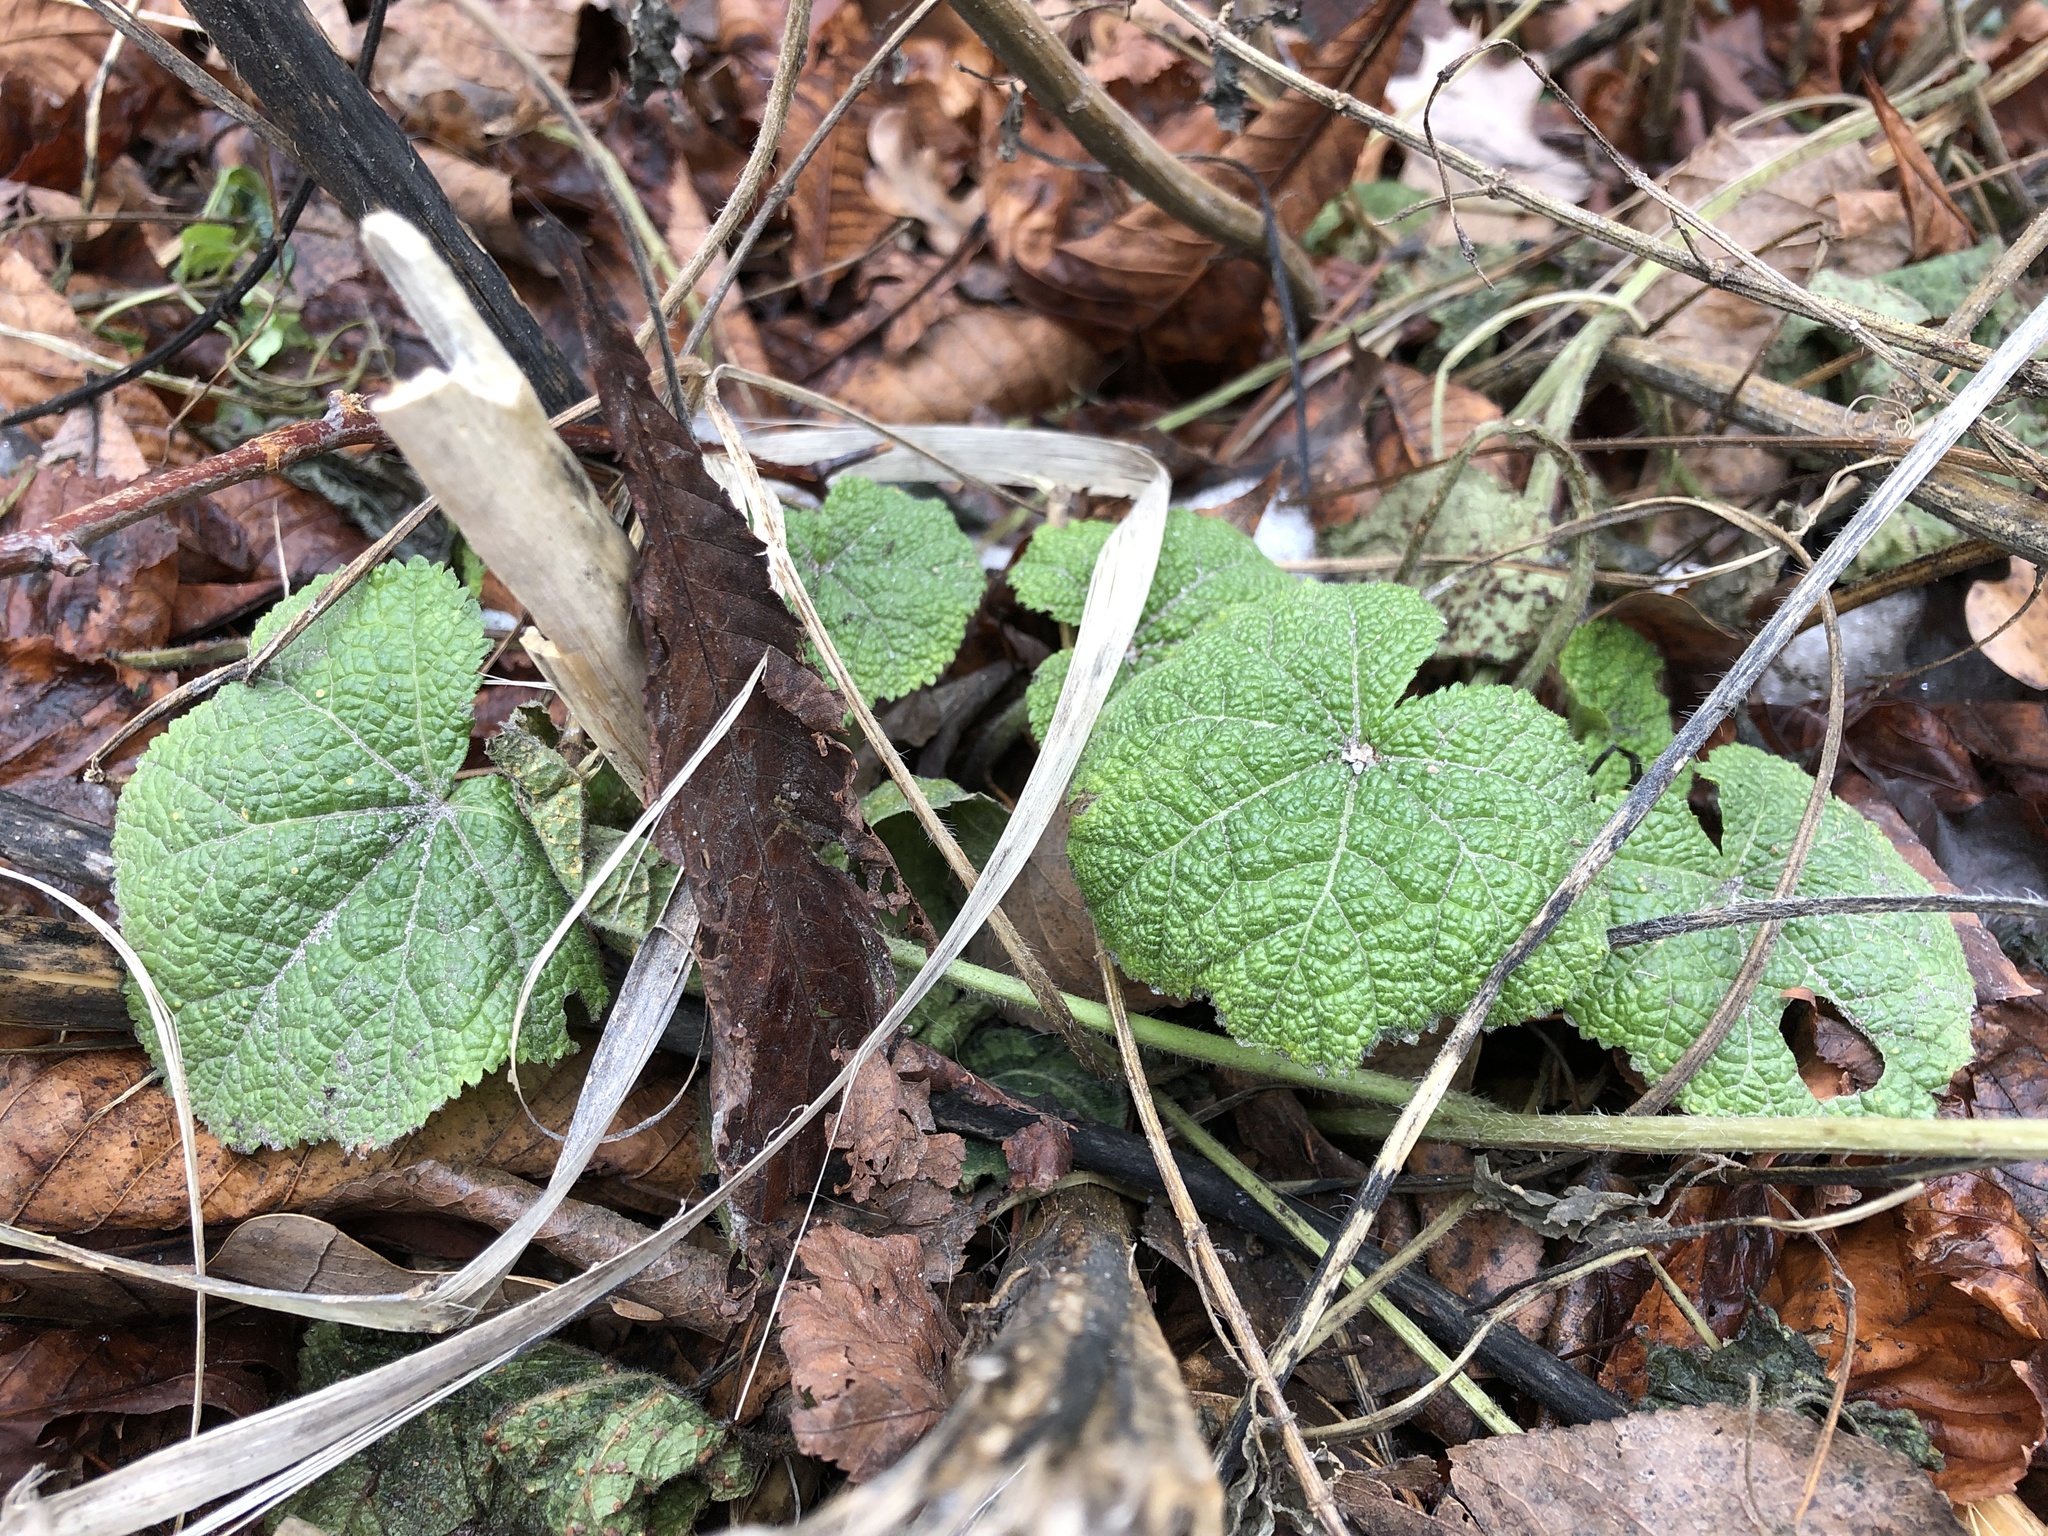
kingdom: Plantae
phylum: Tracheophyta
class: Magnoliopsida
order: Malvales
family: Malvaceae
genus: Alcea
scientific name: Alcea rosea
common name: Hollyhock
